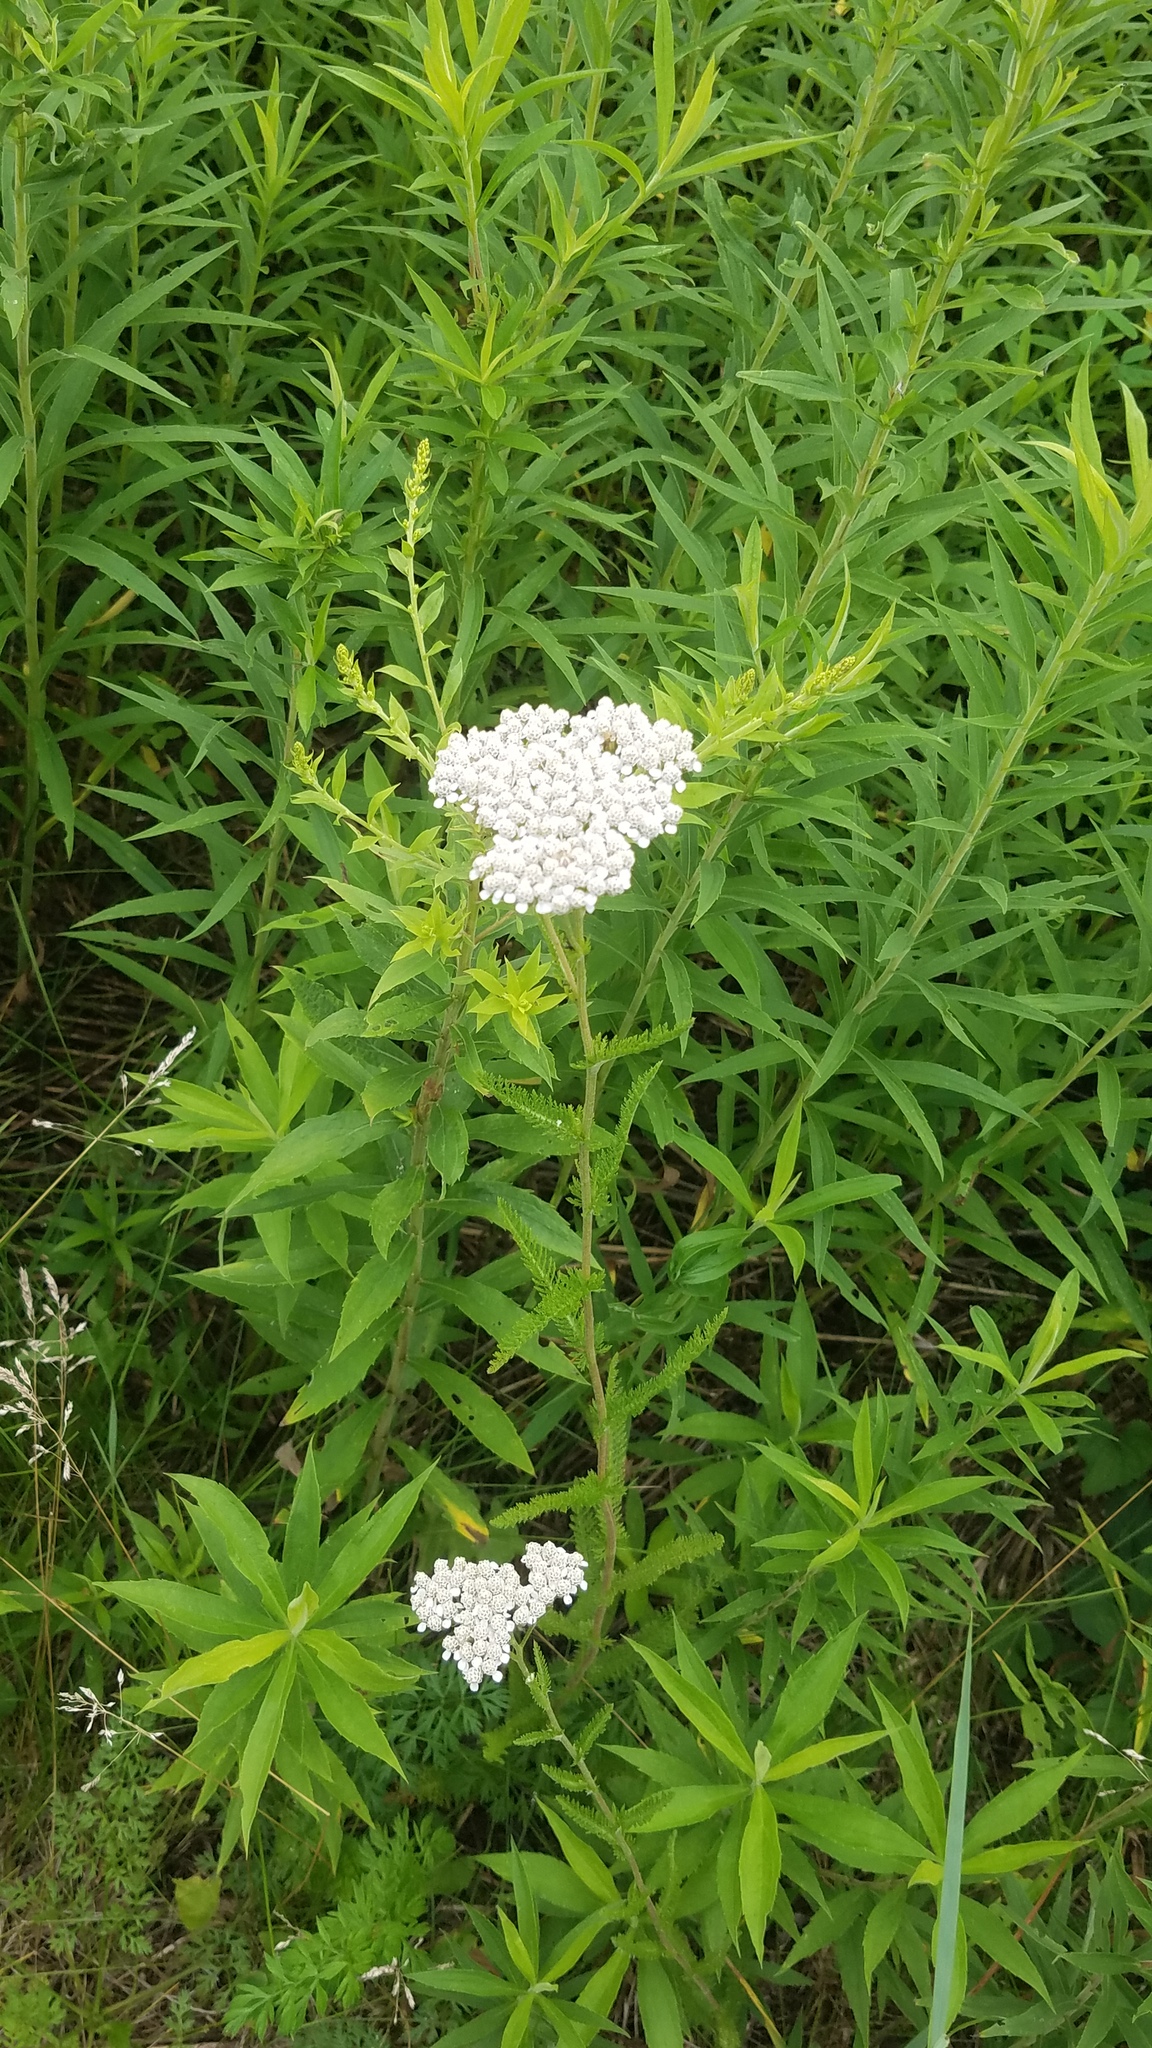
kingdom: Plantae
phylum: Tracheophyta
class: Magnoliopsida
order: Asterales
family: Asteraceae
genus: Achillea
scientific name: Achillea millefolium
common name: Yarrow
